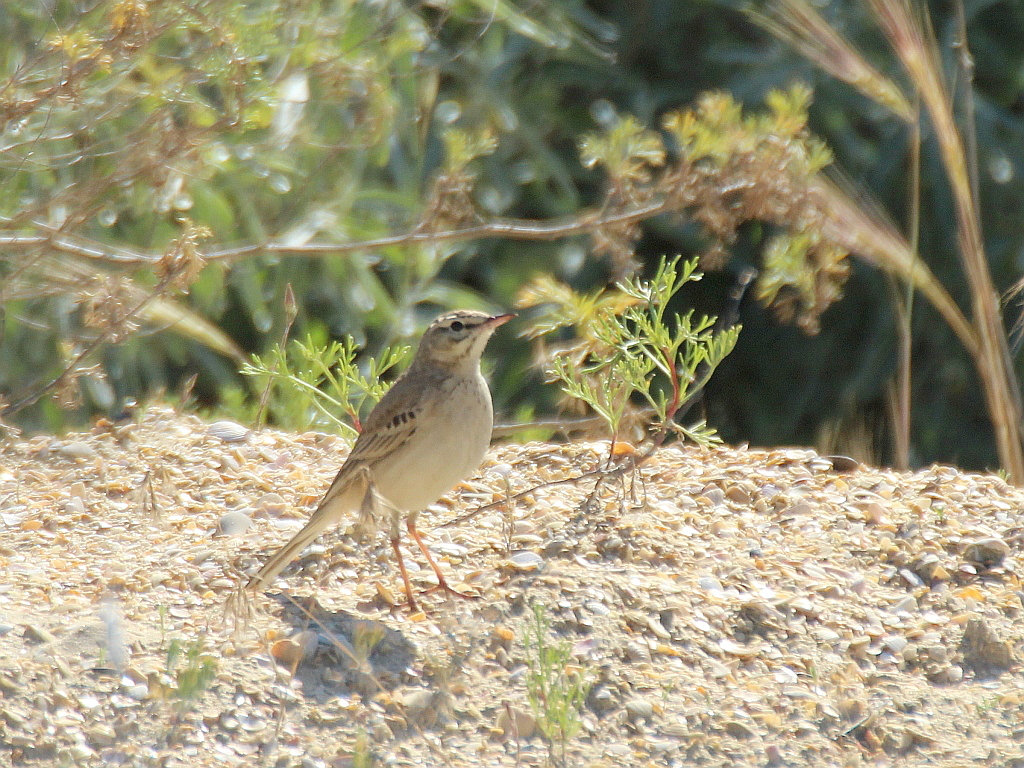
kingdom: Animalia
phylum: Chordata
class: Aves
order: Passeriformes
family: Motacillidae
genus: Anthus
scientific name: Anthus campestris
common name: Tawny pipit
